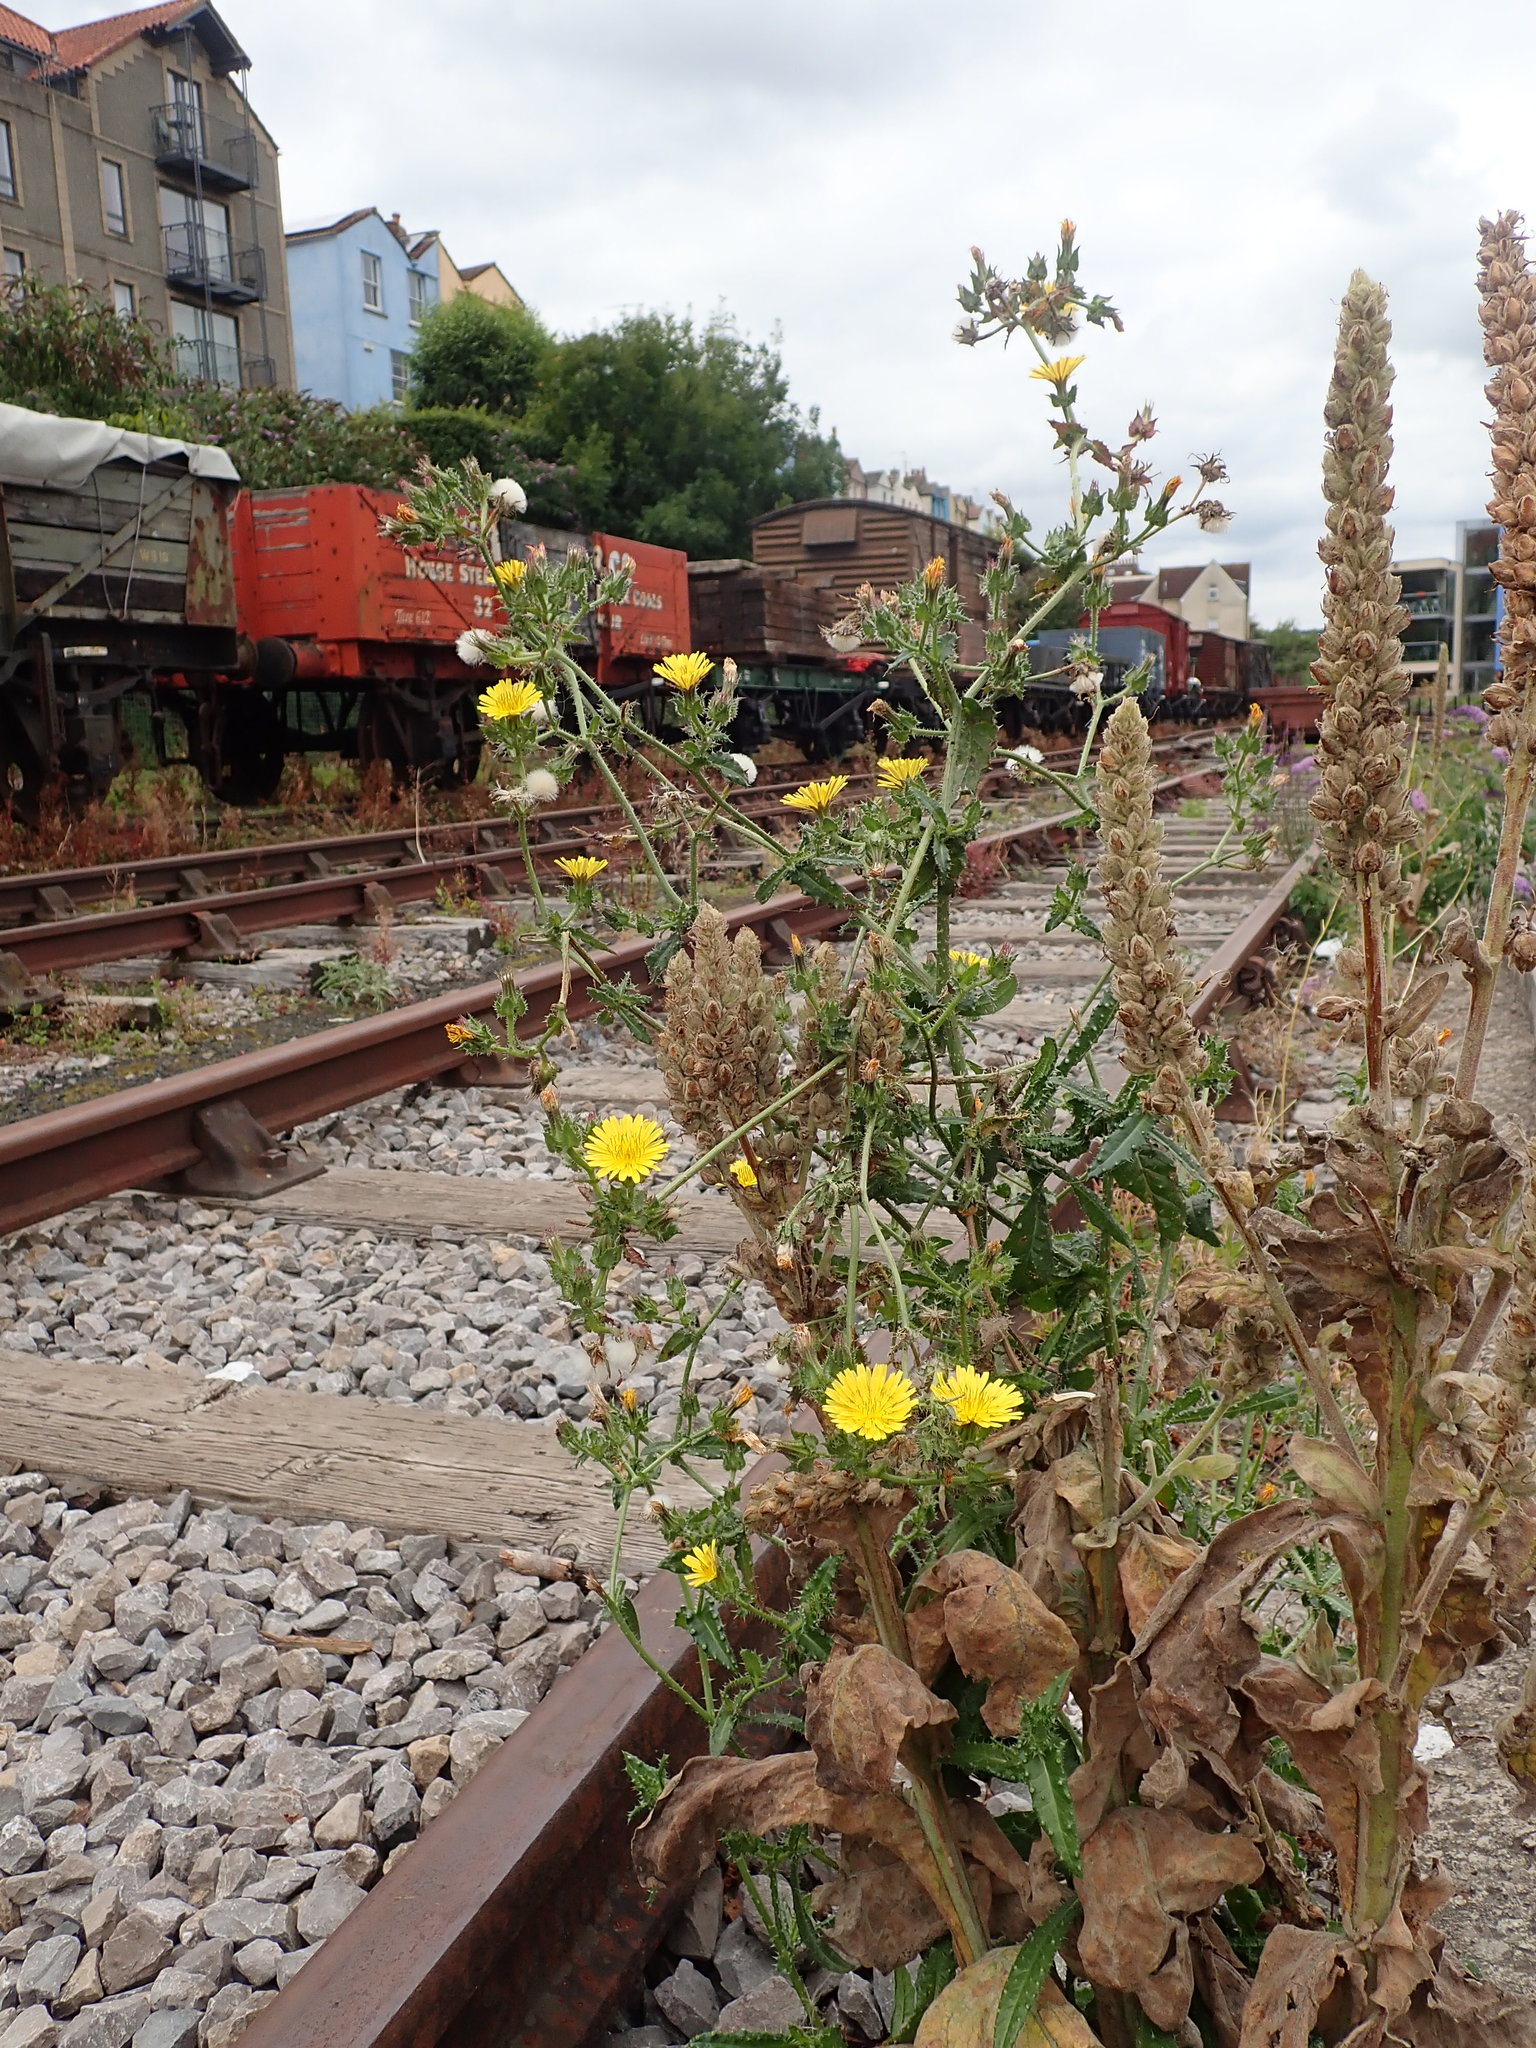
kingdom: Plantae
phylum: Tracheophyta
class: Magnoliopsida
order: Asterales
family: Asteraceae
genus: Helminthotheca
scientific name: Helminthotheca echioides
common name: Ox-tongue
